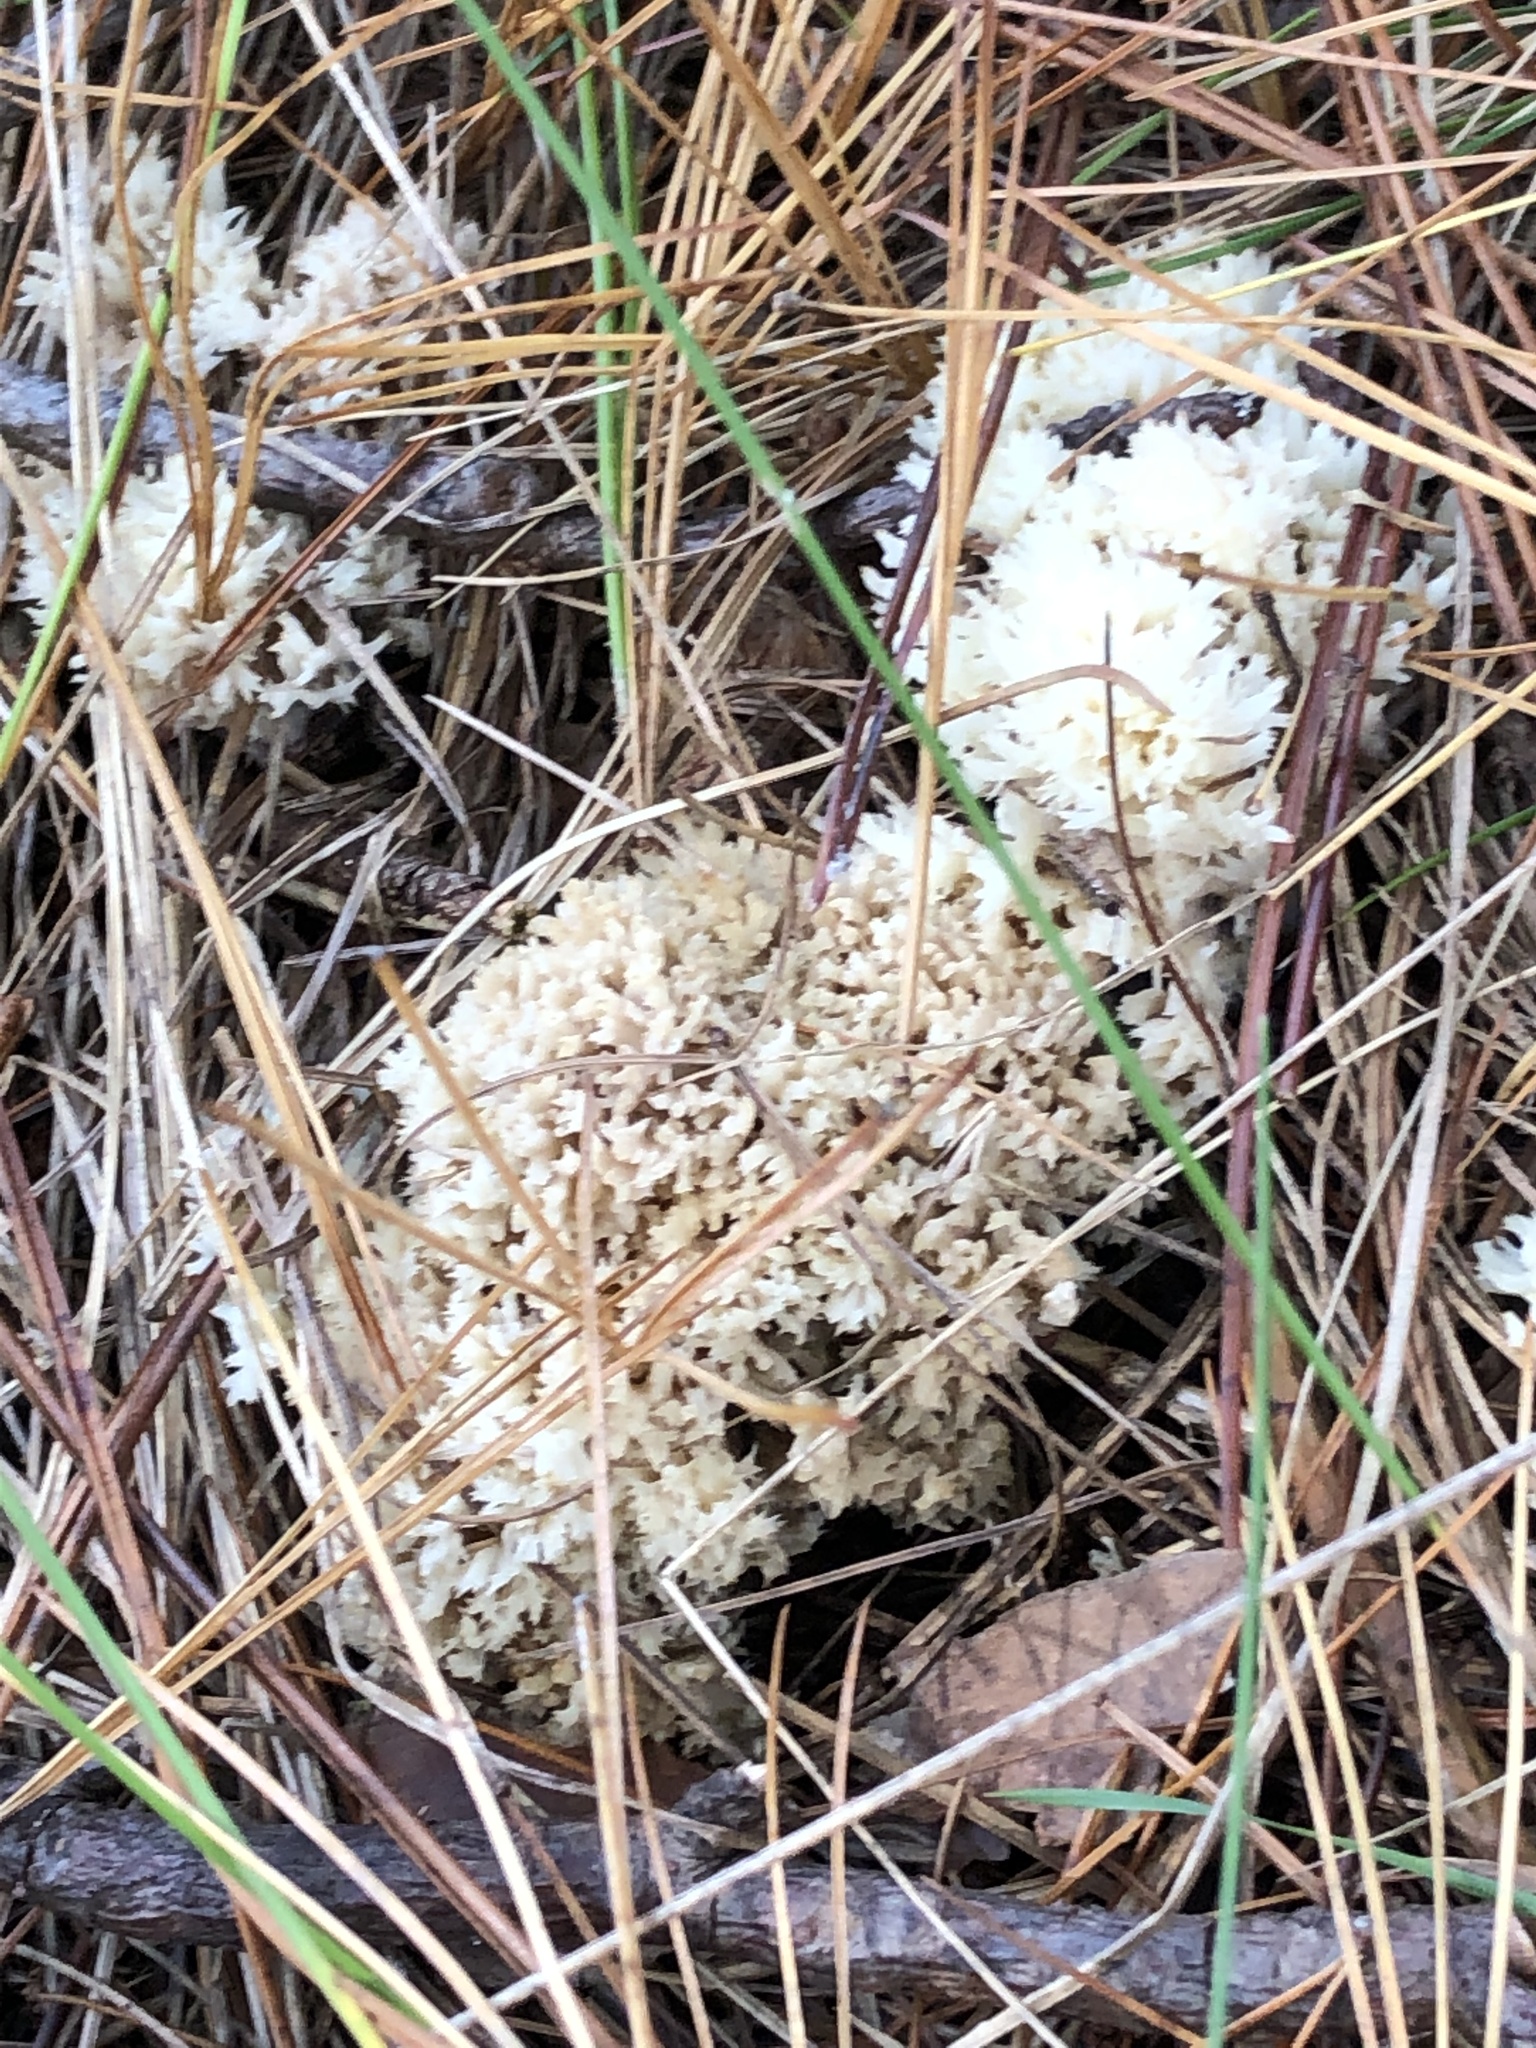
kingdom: Fungi
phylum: Basidiomycota
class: Agaricomycetes
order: Cantharellales
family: Hydnaceae
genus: Clavulina
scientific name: Clavulina coralloides
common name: Crested coral
